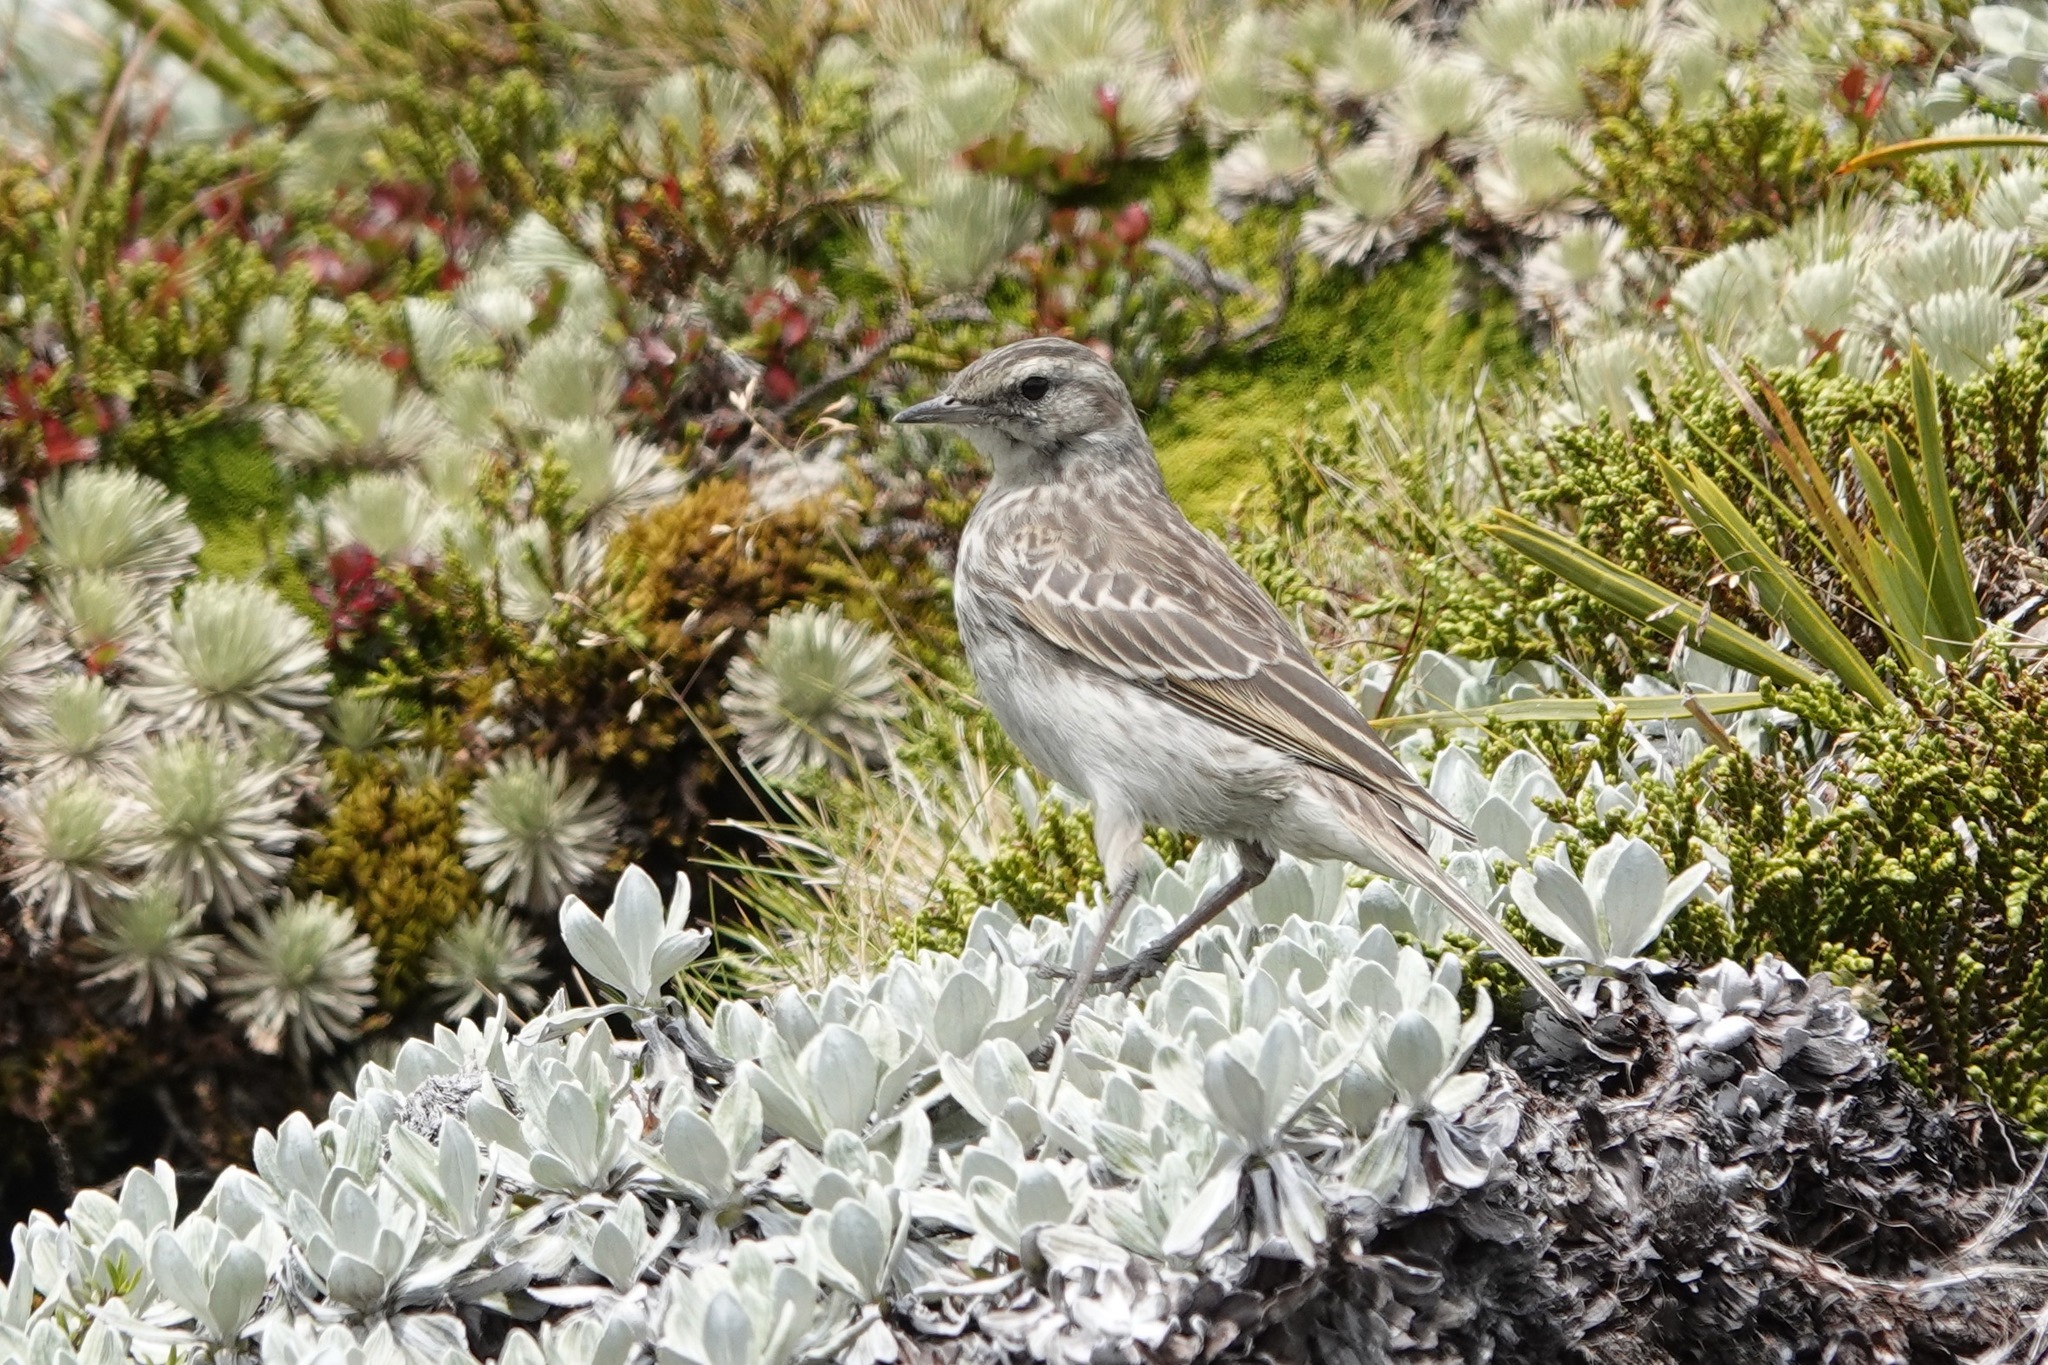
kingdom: Animalia
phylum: Chordata
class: Aves
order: Passeriformes
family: Motacillidae
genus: Anthus
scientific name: Anthus novaeseelandiae
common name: New zealand pipit
